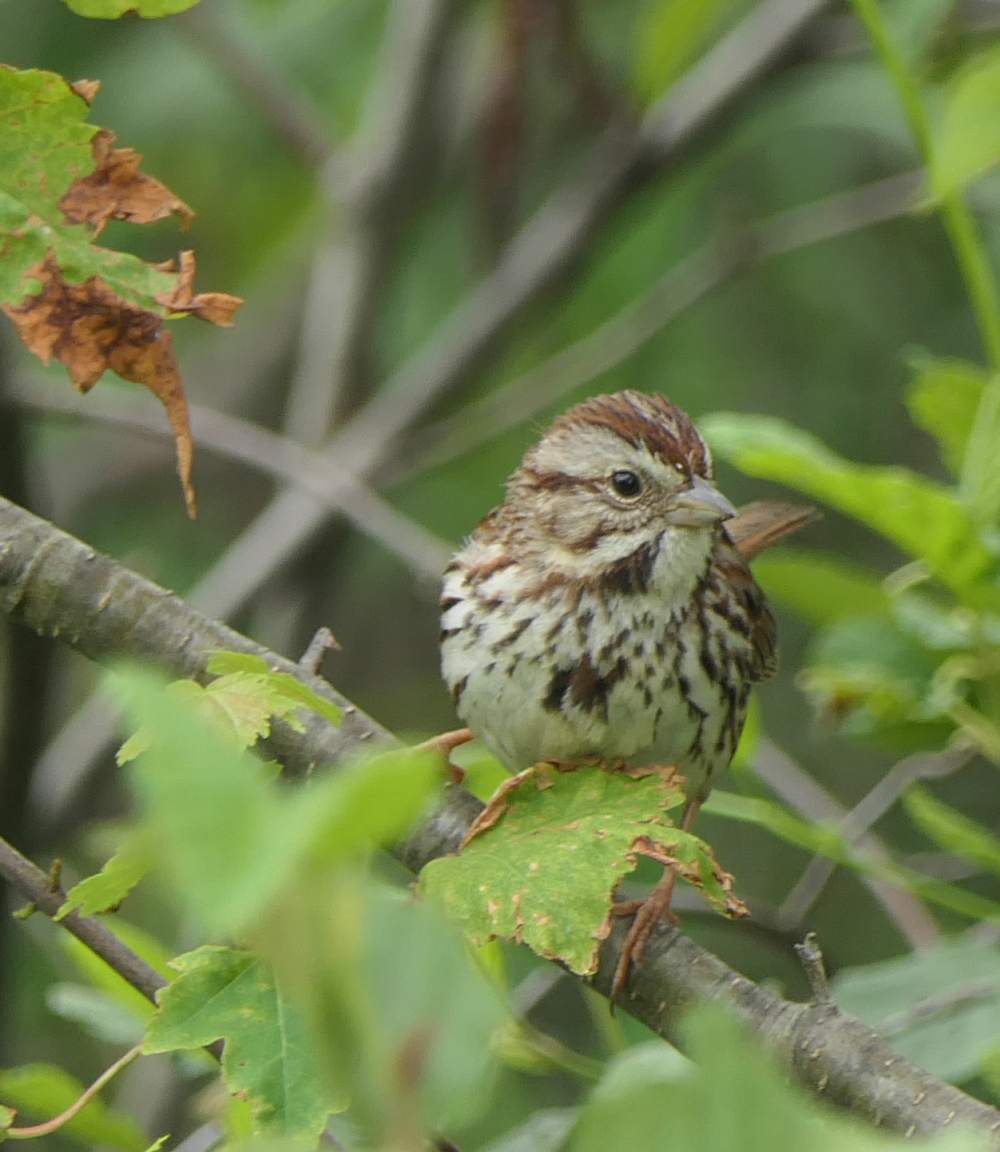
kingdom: Animalia
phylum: Chordata
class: Aves
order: Passeriformes
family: Passerellidae
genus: Melospiza
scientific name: Melospiza melodia
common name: Song sparrow
